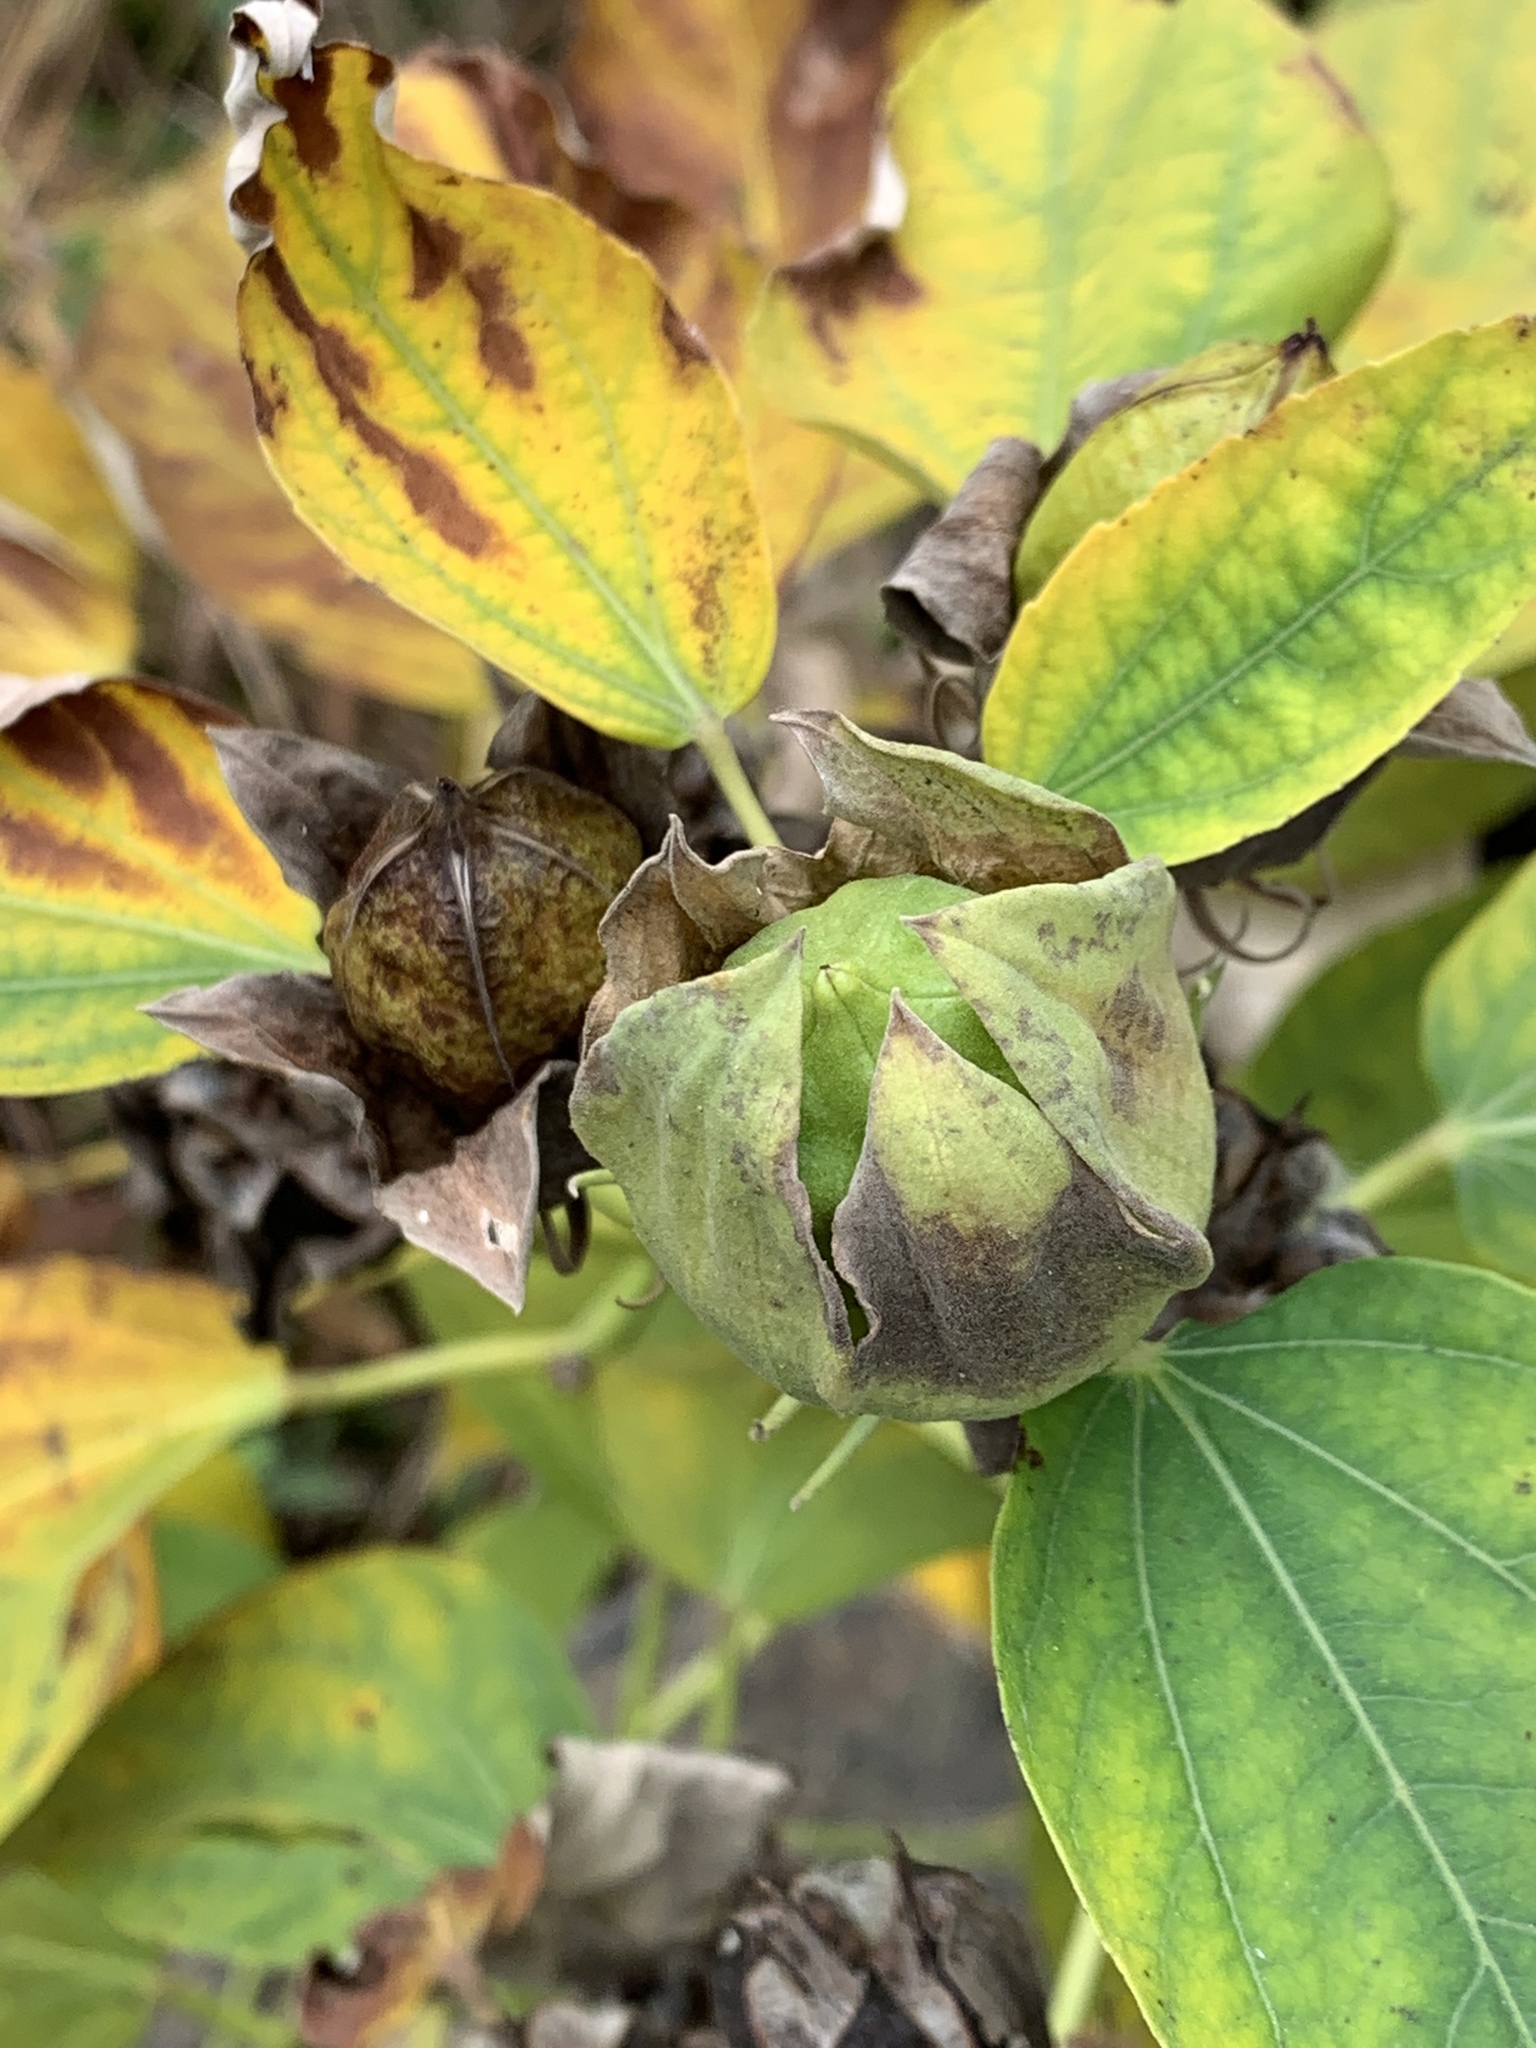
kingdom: Plantae
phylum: Tracheophyta
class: Magnoliopsida
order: Malvales
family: Malvaceae
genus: Hibiscus
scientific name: Hibiscus moscheutos
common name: Common rose-mallow
